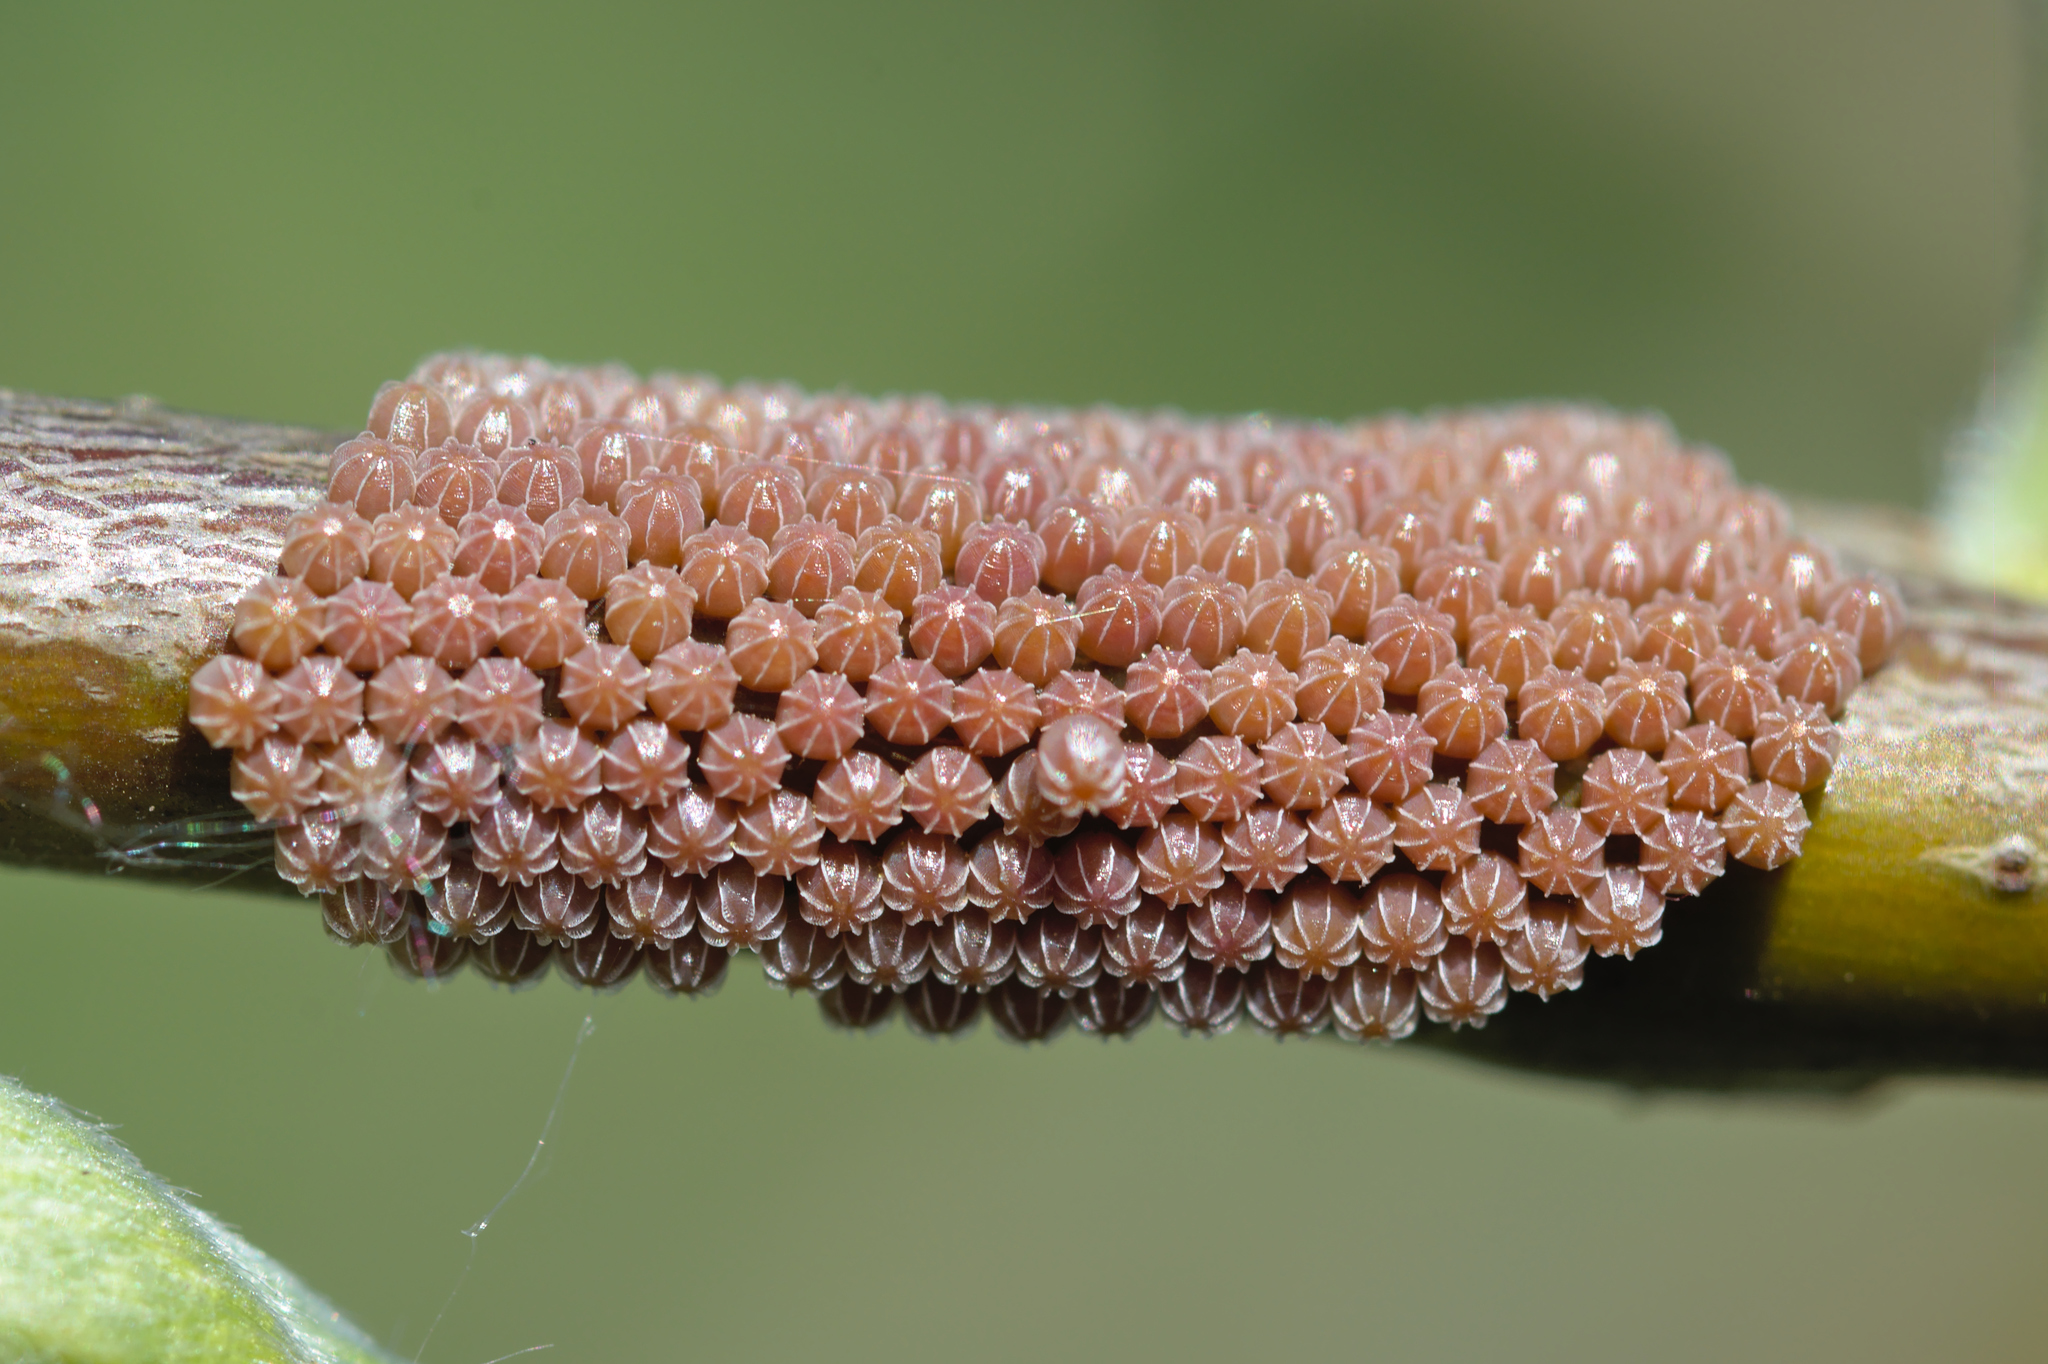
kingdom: Animalia
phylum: Arthropoda
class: Insecta
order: Lepidoptera
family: Nymphalidae
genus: Nymphalis
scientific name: Nymphalis polychloros
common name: Large tortoiseshell
